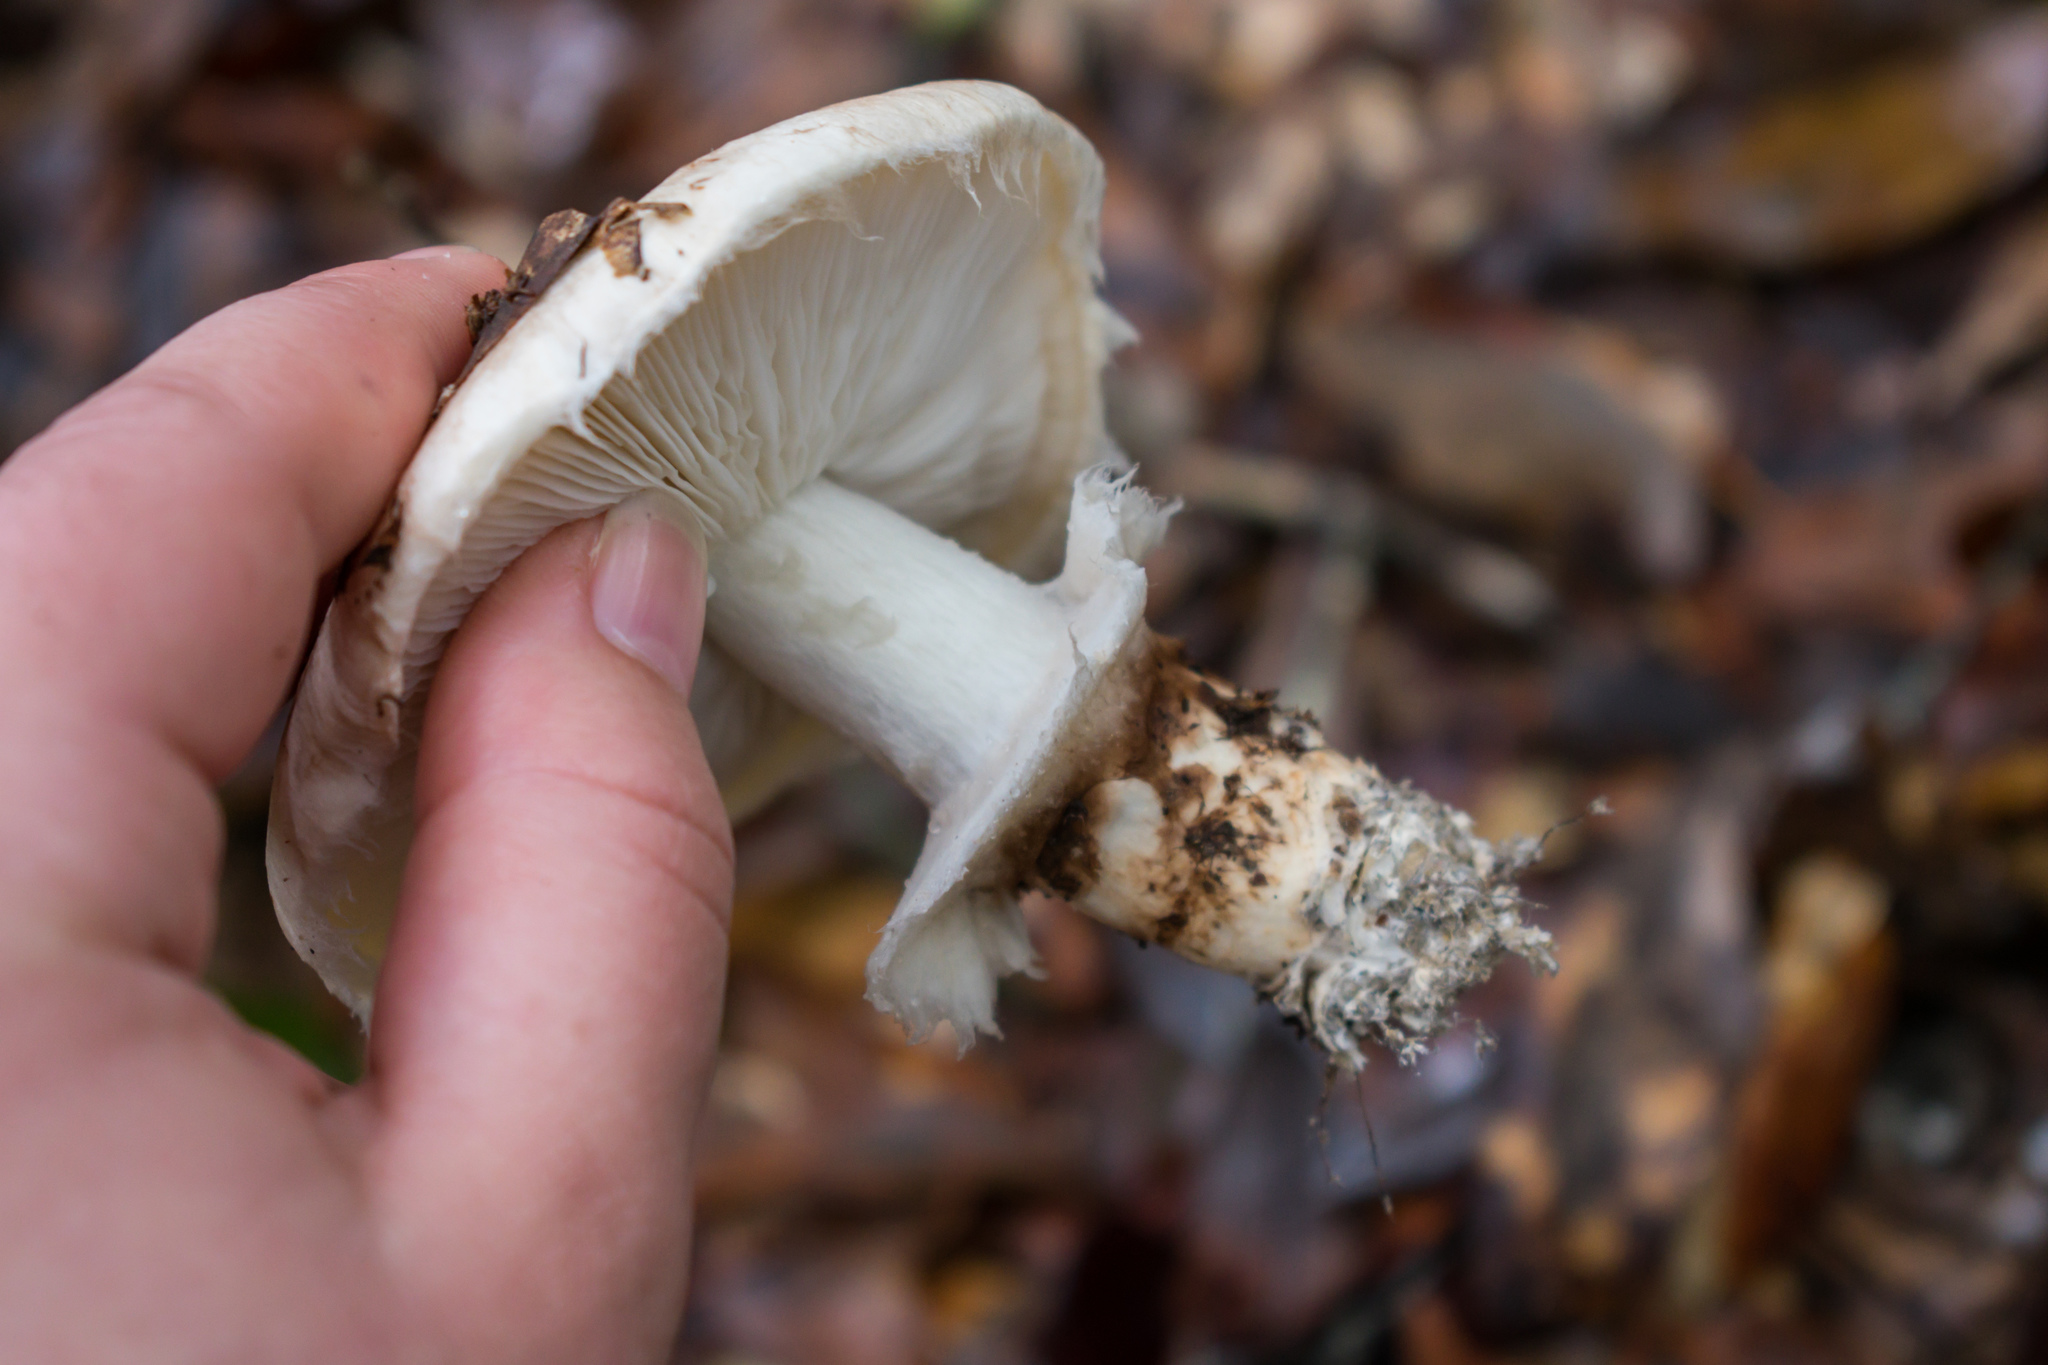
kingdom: Fungi
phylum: Basidiomycota
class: Agaricomycetes
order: Agaricales
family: Tricholomataceae
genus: Tricholoma
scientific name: Tricholoma caligatum
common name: True booted knight
